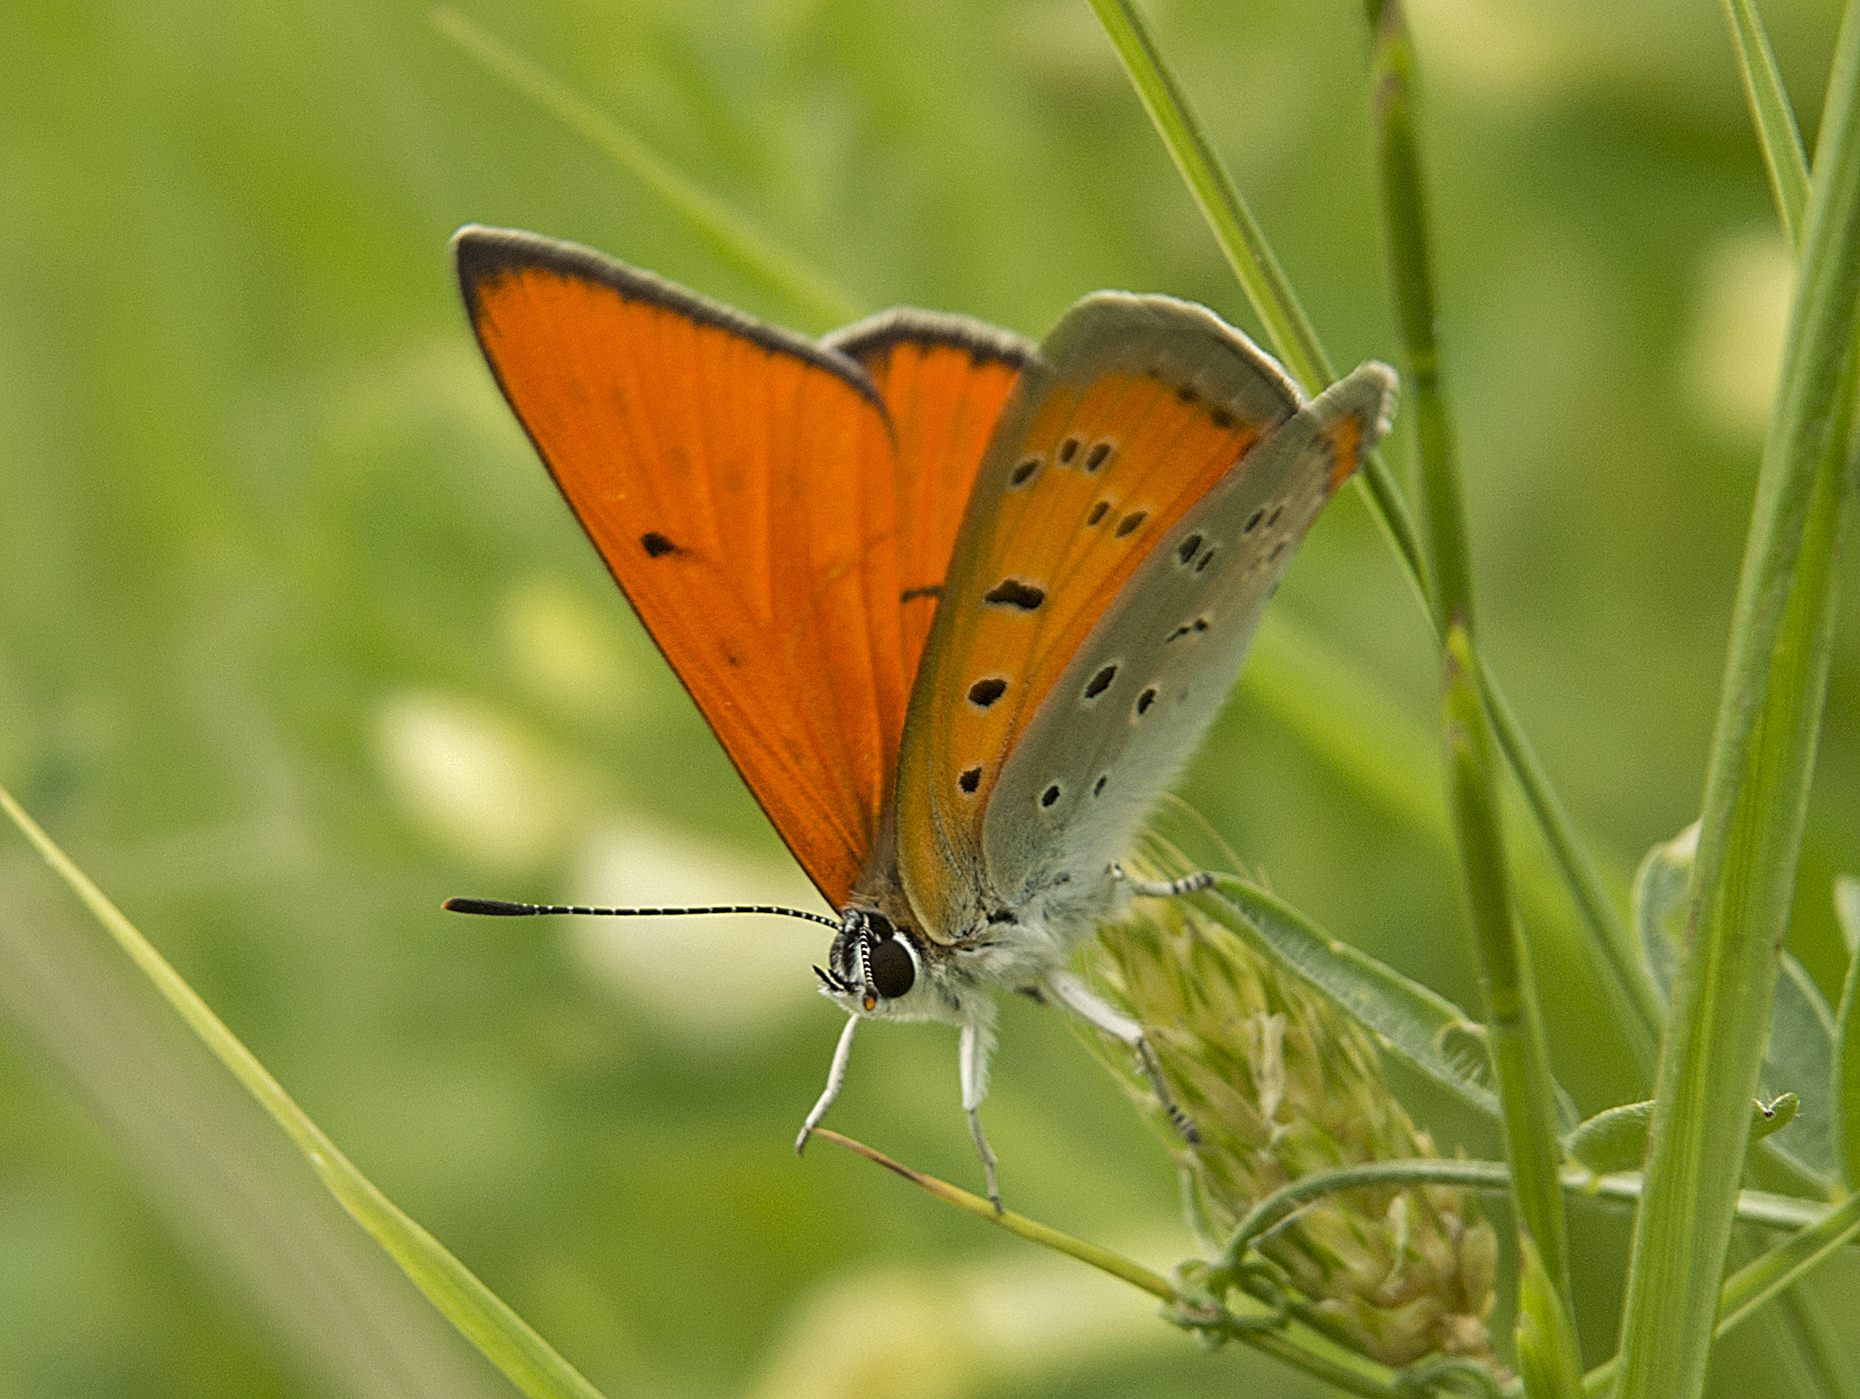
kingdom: Animalia
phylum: Arthropoda
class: Insecta
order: Lepidoptera
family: Lycaenidae
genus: Lycaena
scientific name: Lycaena dispar
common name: Large copper
